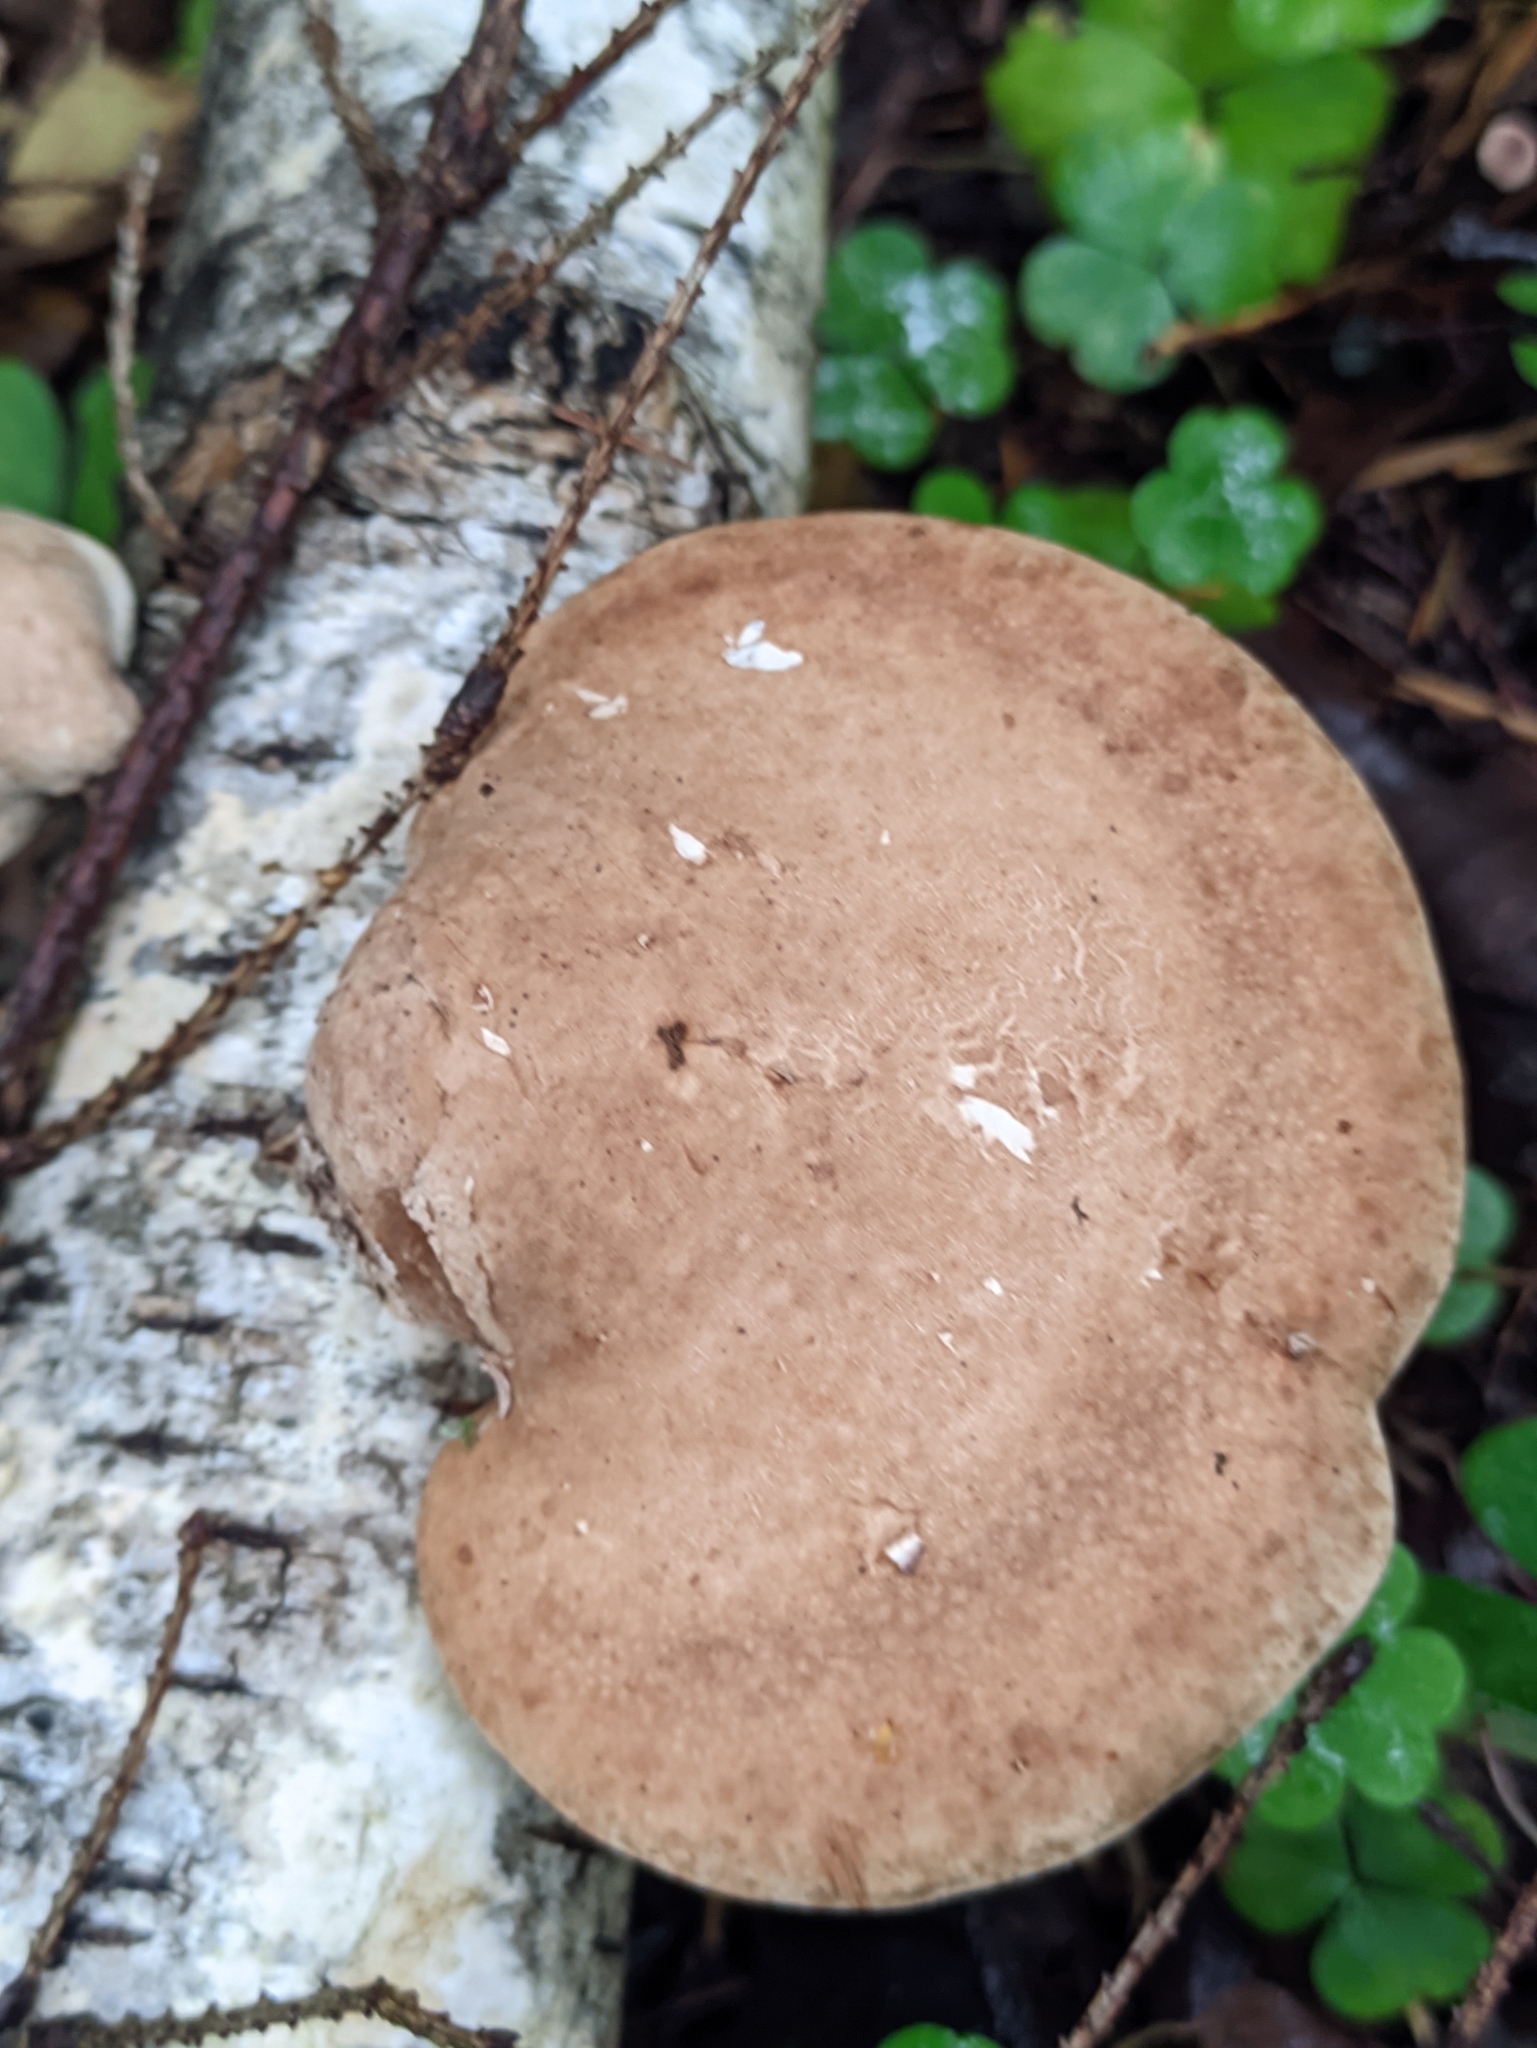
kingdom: Fungi
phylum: Basidiomycota
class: Agaricomycetes
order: Polyporales
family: Fomitopsidaceae
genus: Fomitopsis
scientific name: Fomitopsis betulina
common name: Birch polypore
